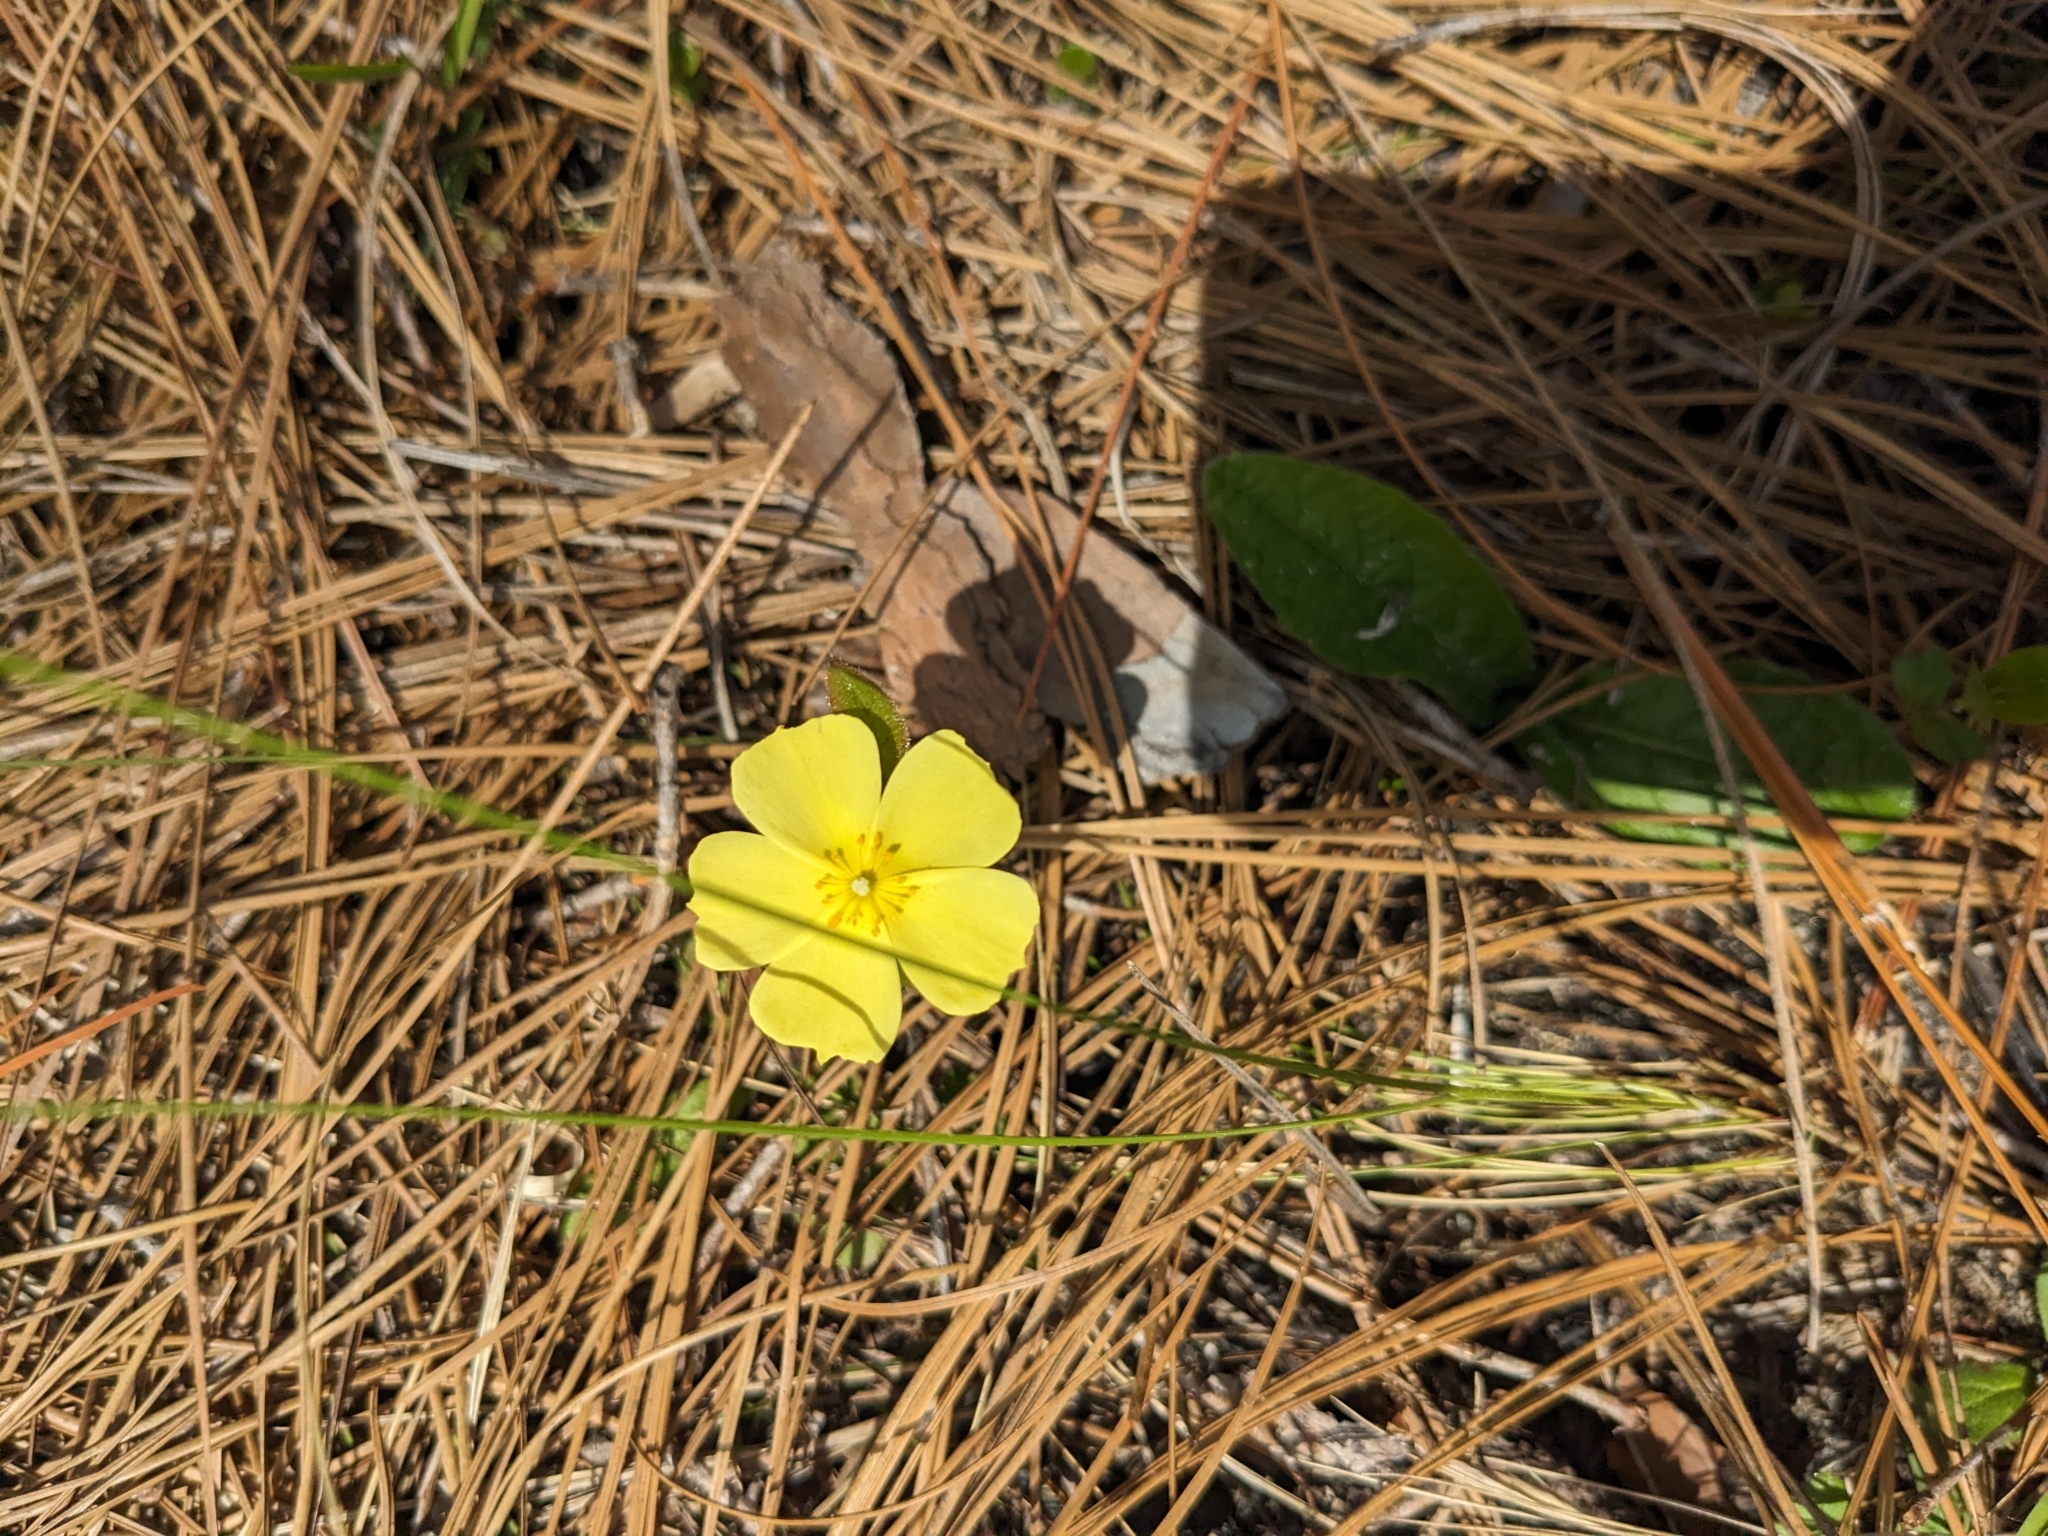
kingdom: Plantae
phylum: Tracheophyta
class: Magnoliopsida
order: Malvales
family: Cistaceae
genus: Crocanthemum
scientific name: Crocanthemum carolinianum
